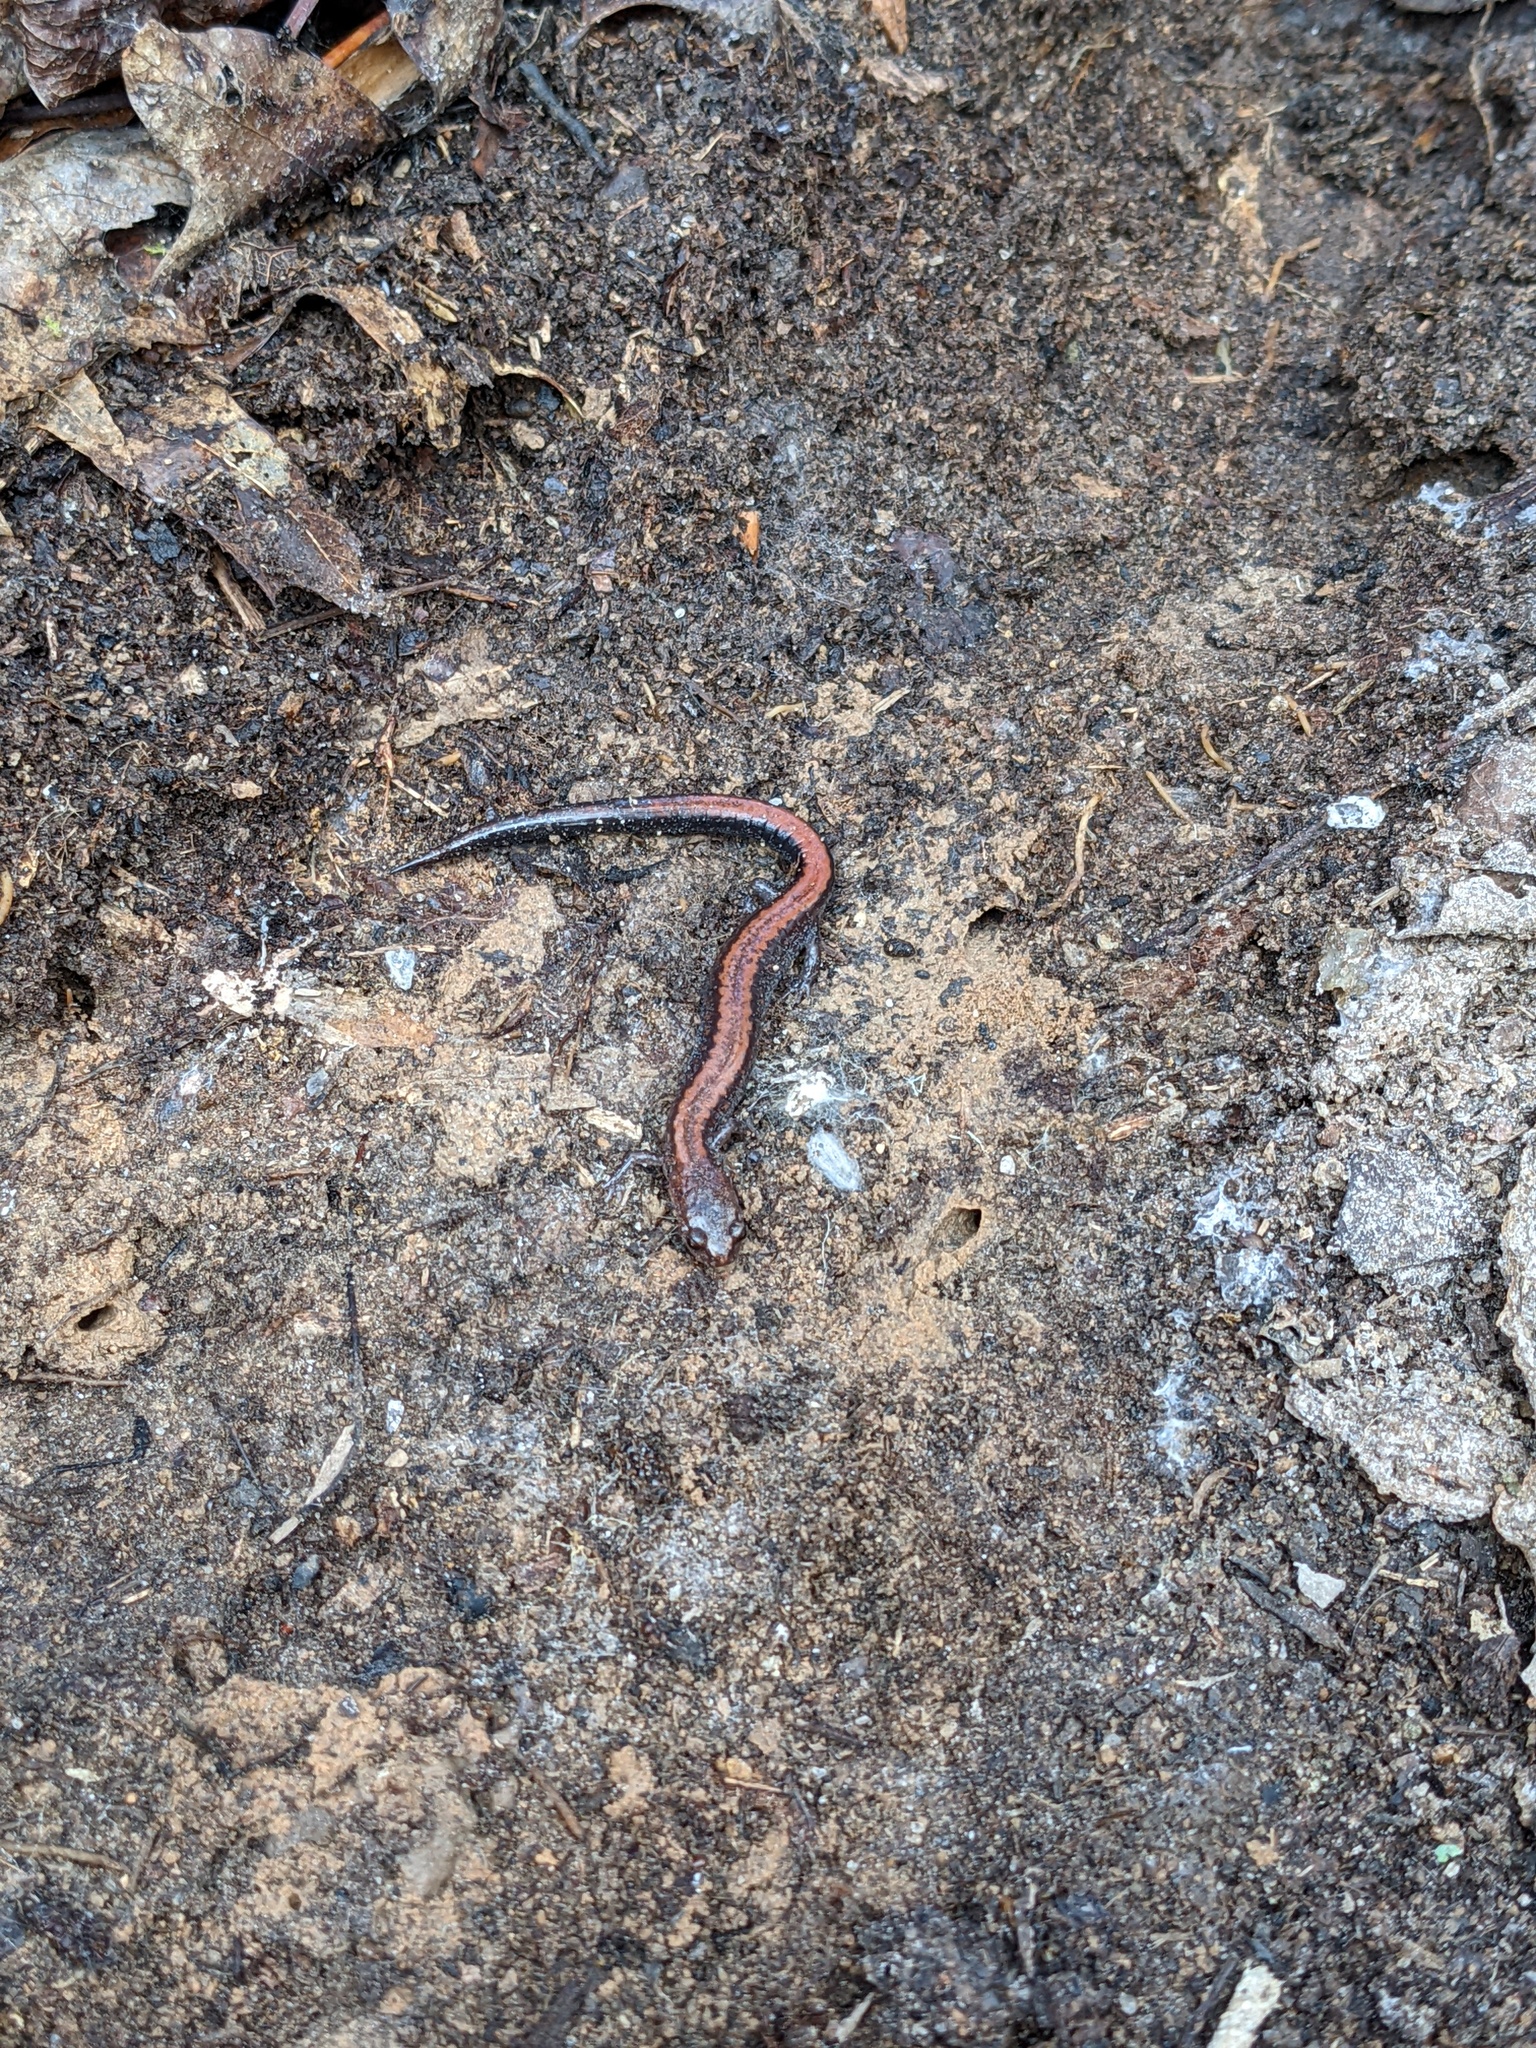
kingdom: Animalia
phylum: Chordata
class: Amphibia
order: Caudata
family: Plethodontidae
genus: Plethodon
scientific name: Plethodon cinereus
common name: Redback salamander
